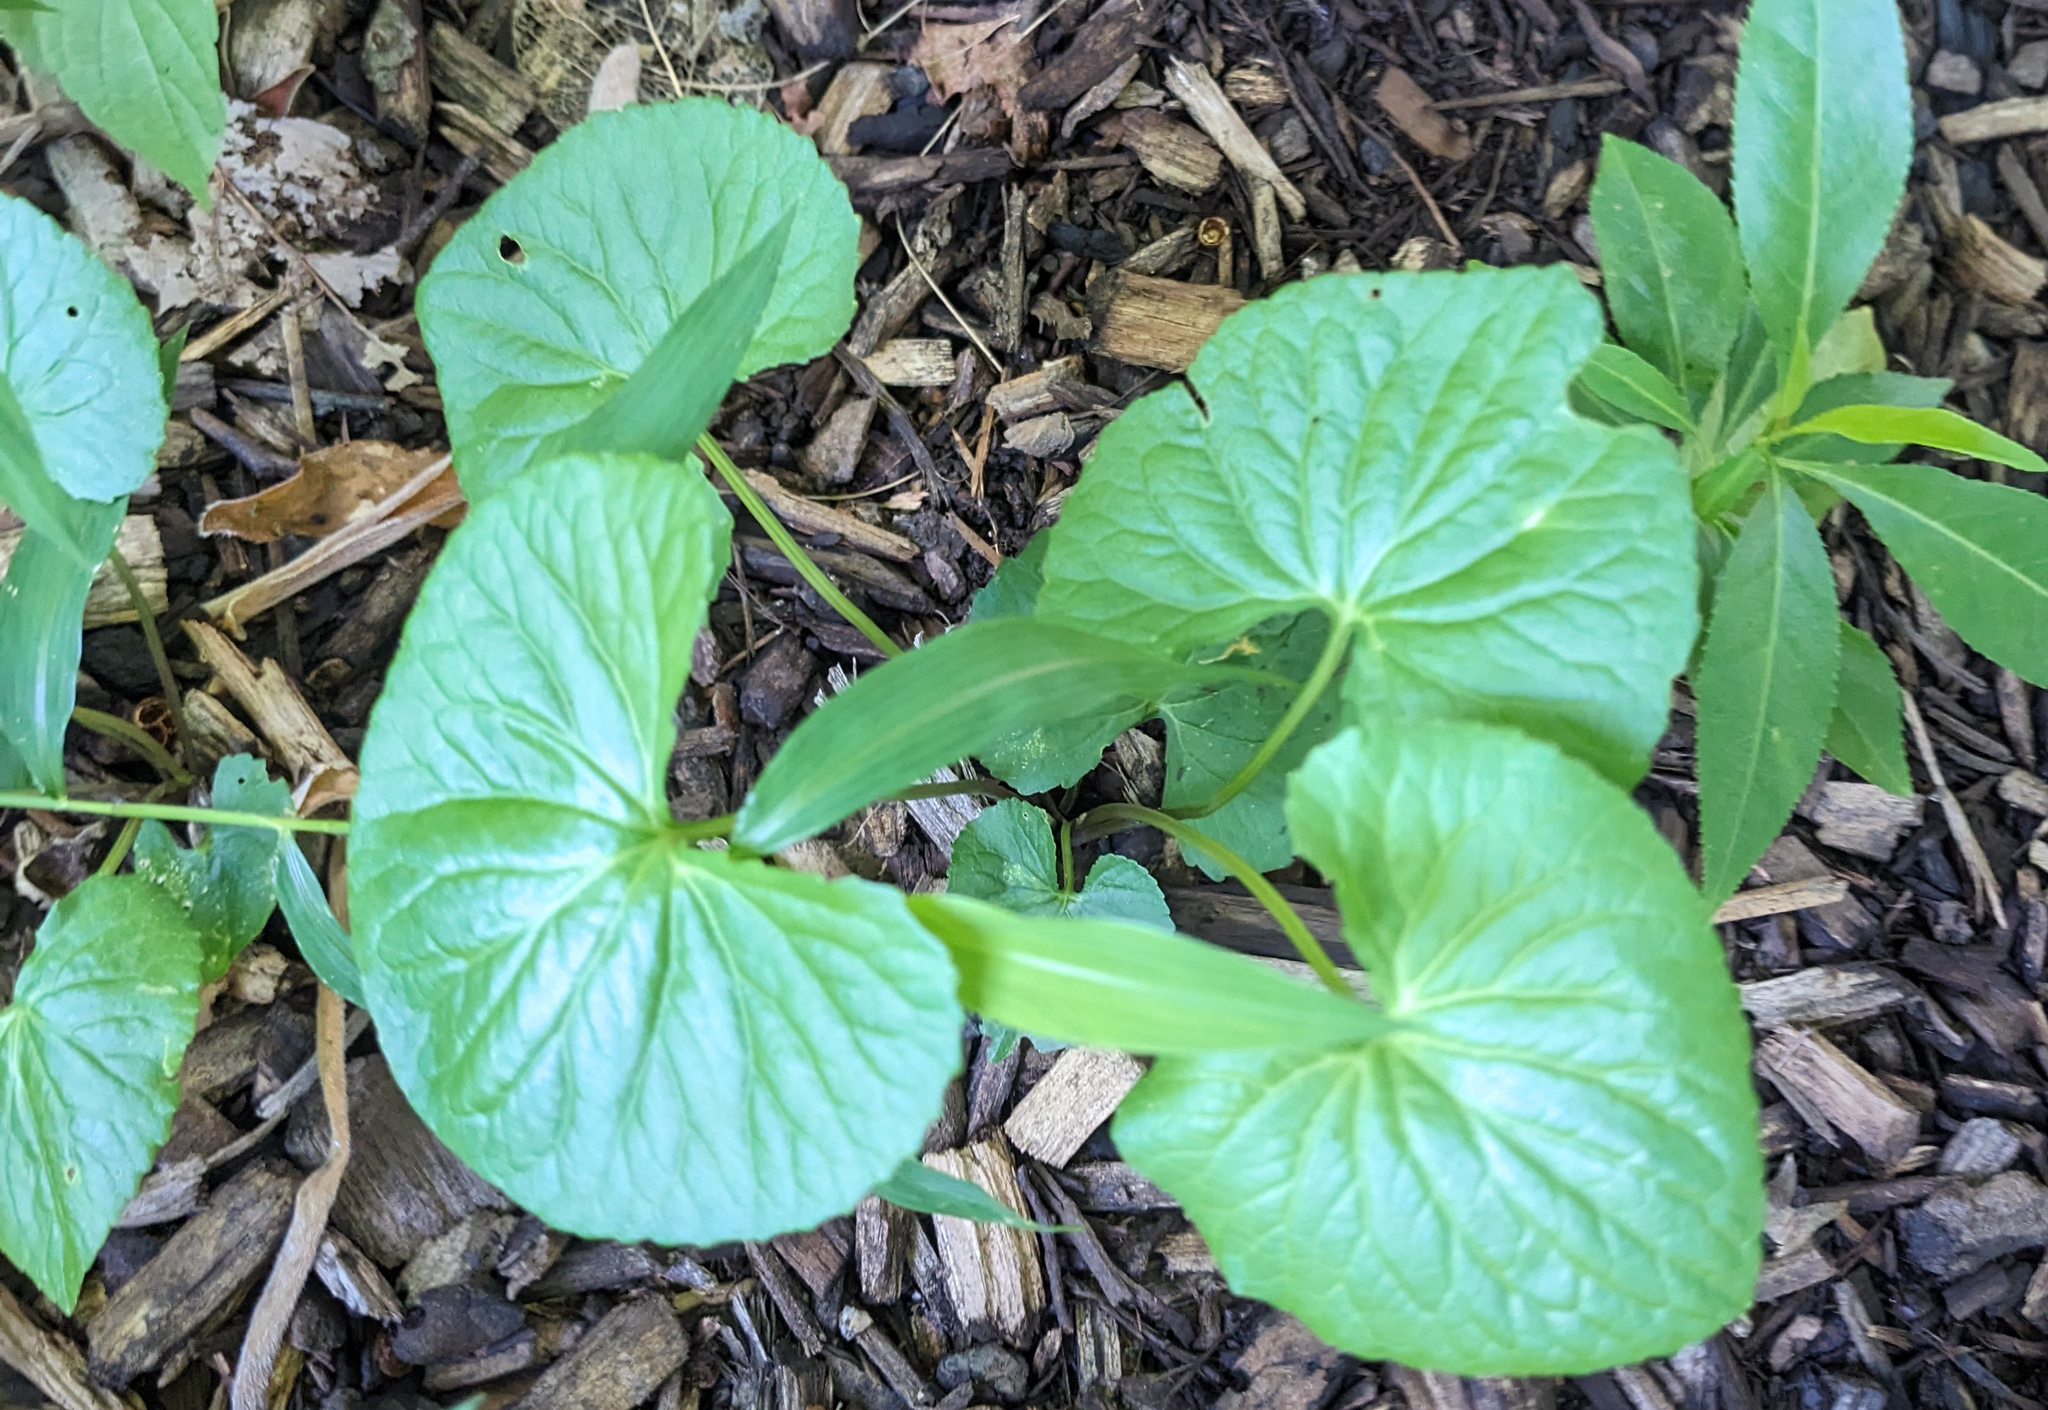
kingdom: Plantae
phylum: Tracheophyta
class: Magnoliopsida
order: Malpighiales
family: Violaceae
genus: Viola
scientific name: Viola sororia
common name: Dooryard violet
